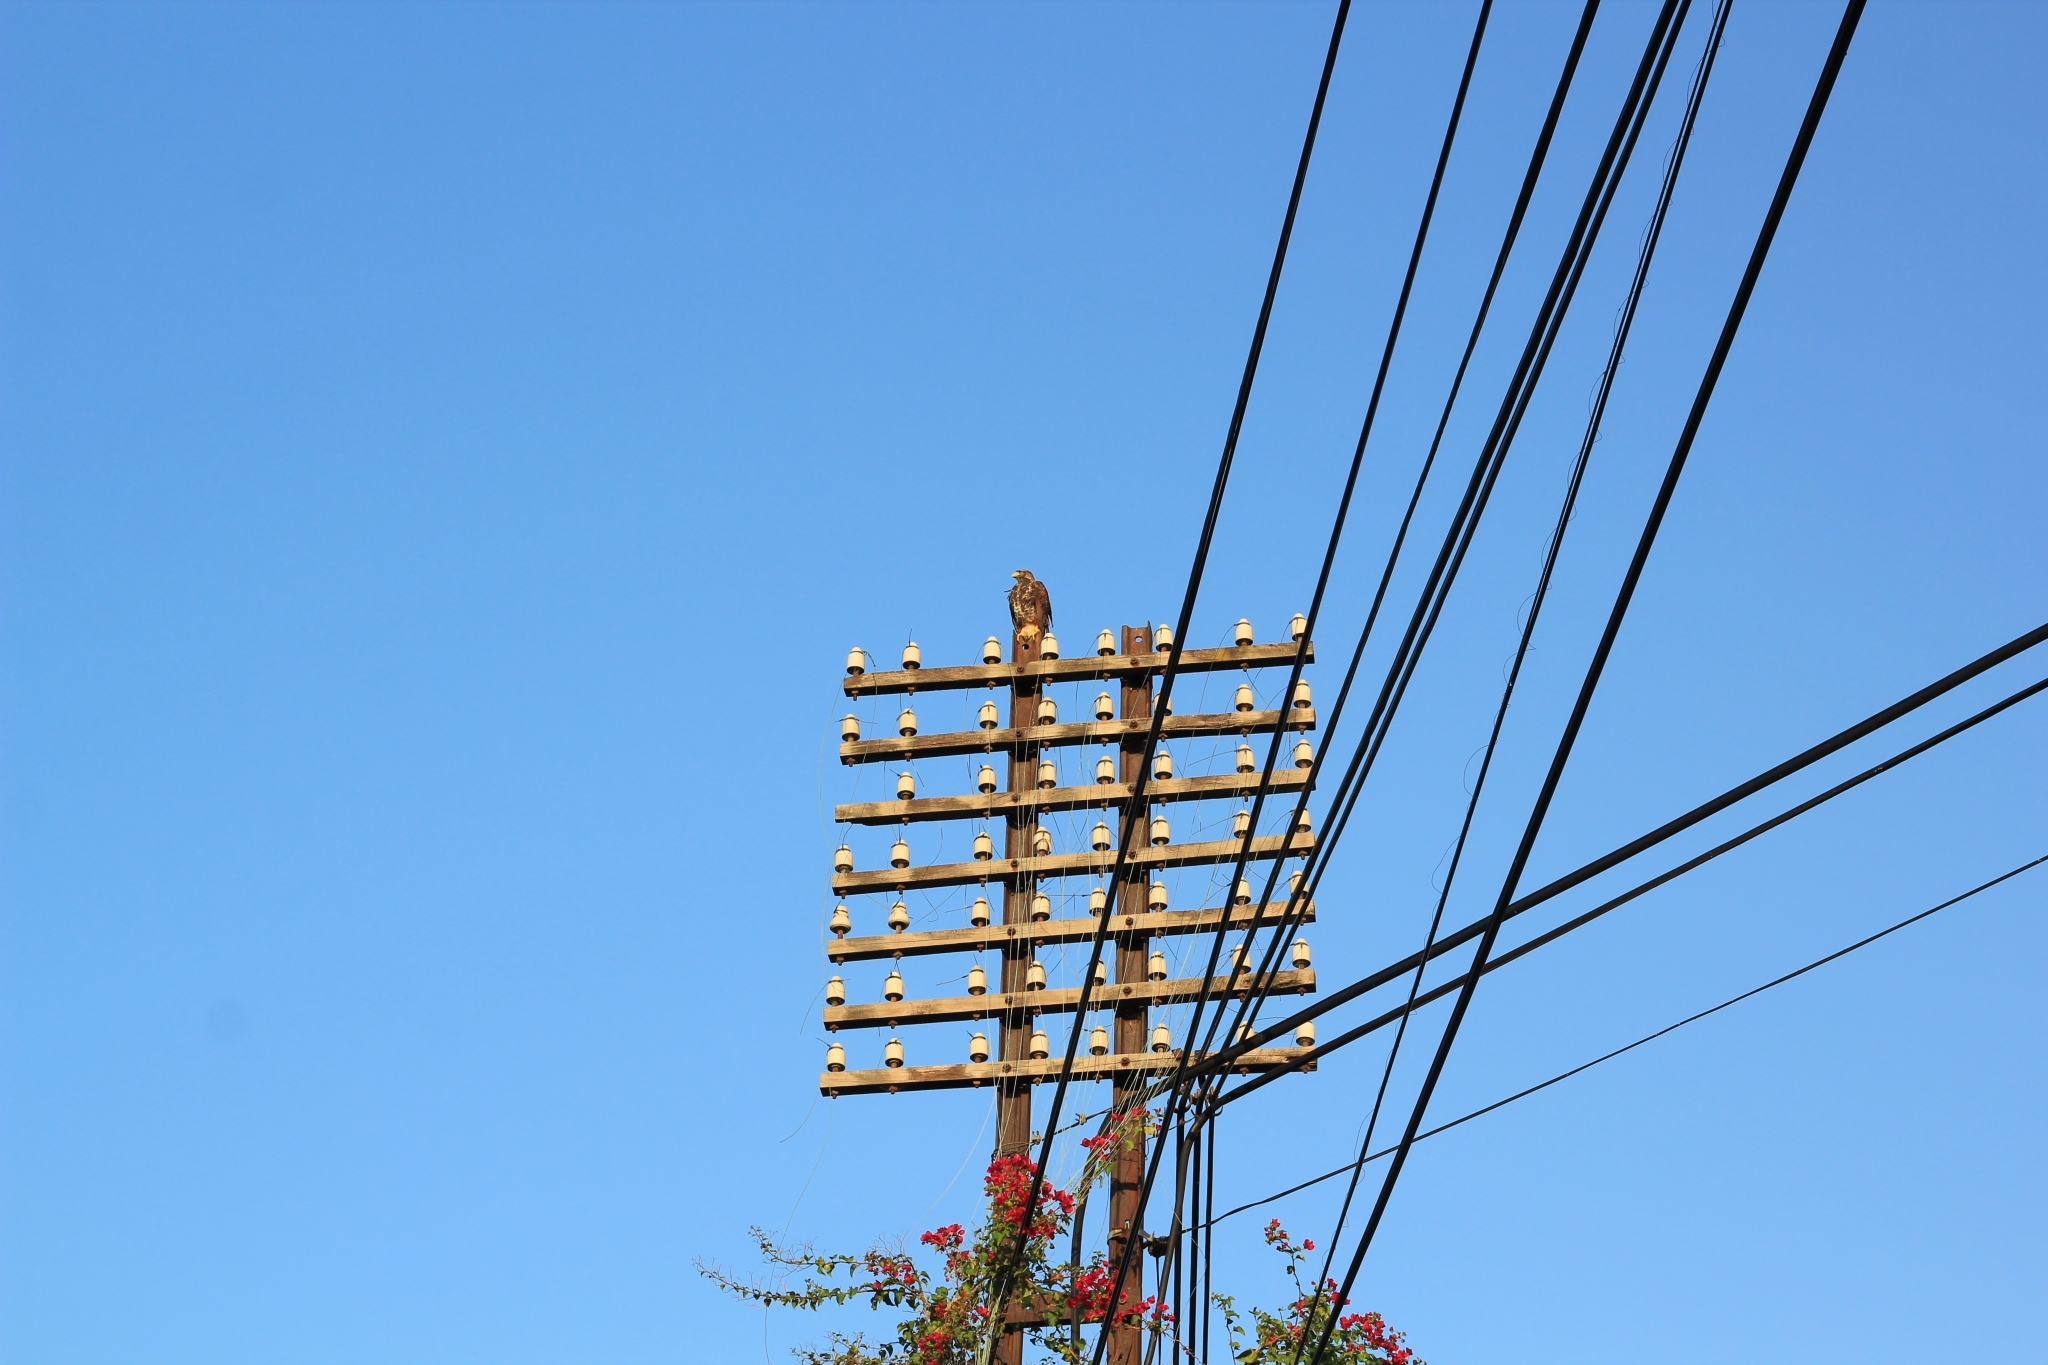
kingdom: Animalia
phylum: Chordata
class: Aves
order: Accipitriformes
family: Accipitridae
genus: Parabuteo
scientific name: Parabuteo unicinctus
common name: Harris's hawk
